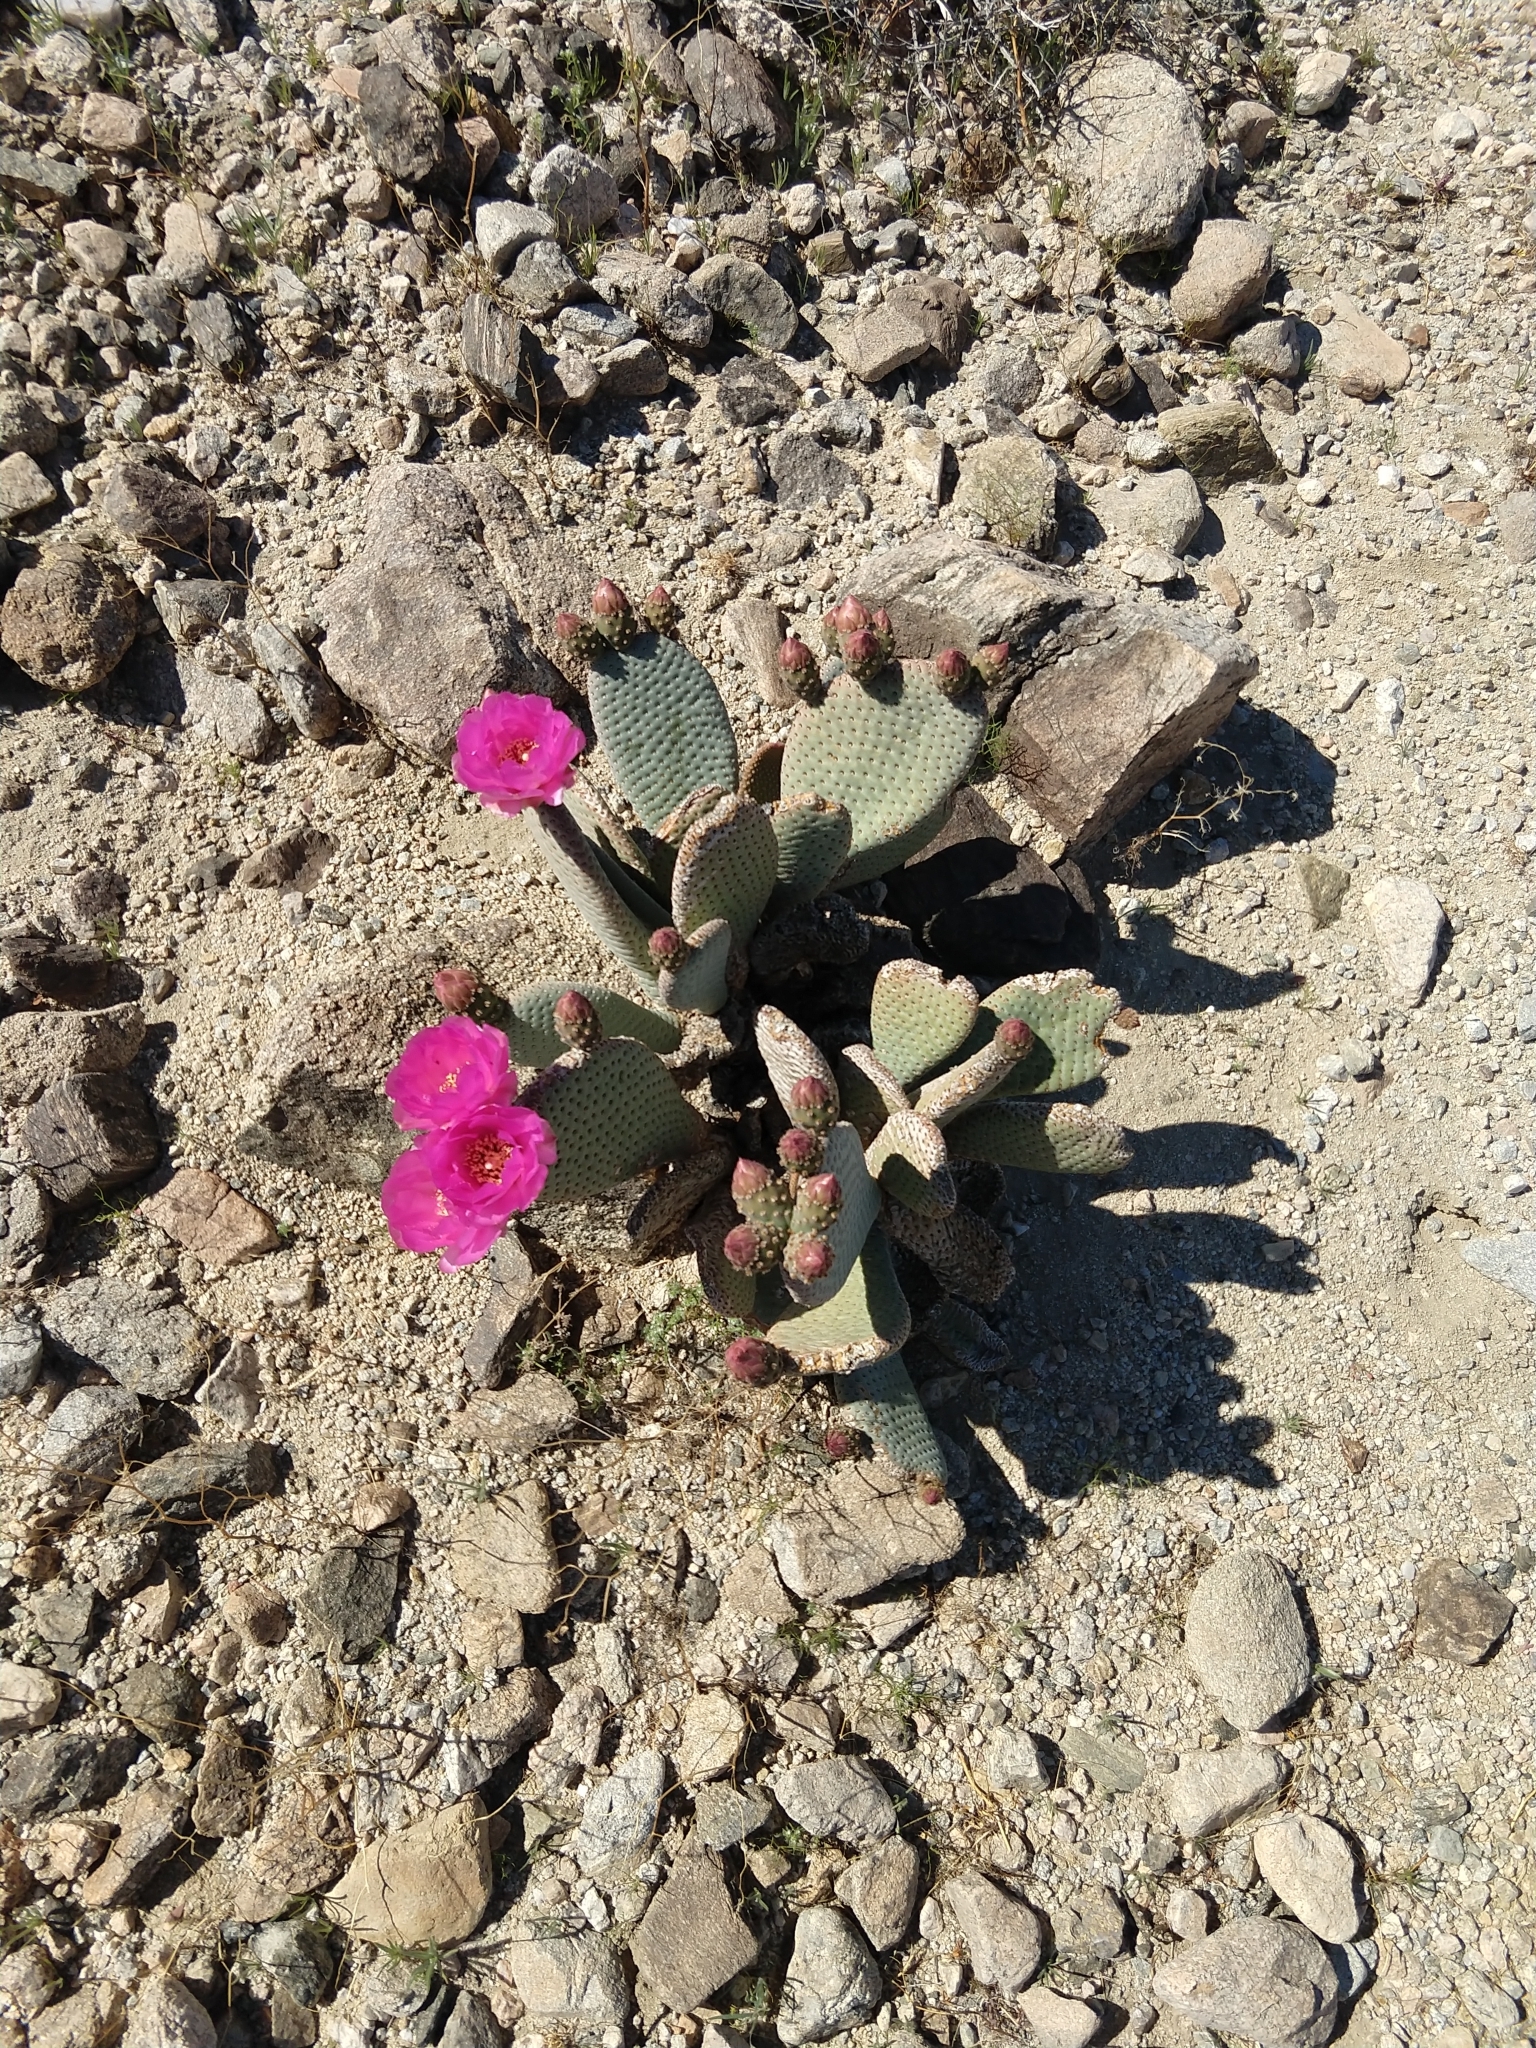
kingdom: Plantae
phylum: Tracheophyta
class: Magnoliopsida
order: Caryophyllales
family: Cactaceae
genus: Opuntia
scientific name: Opuntia basilaris
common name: Beavertail prickly-pear
